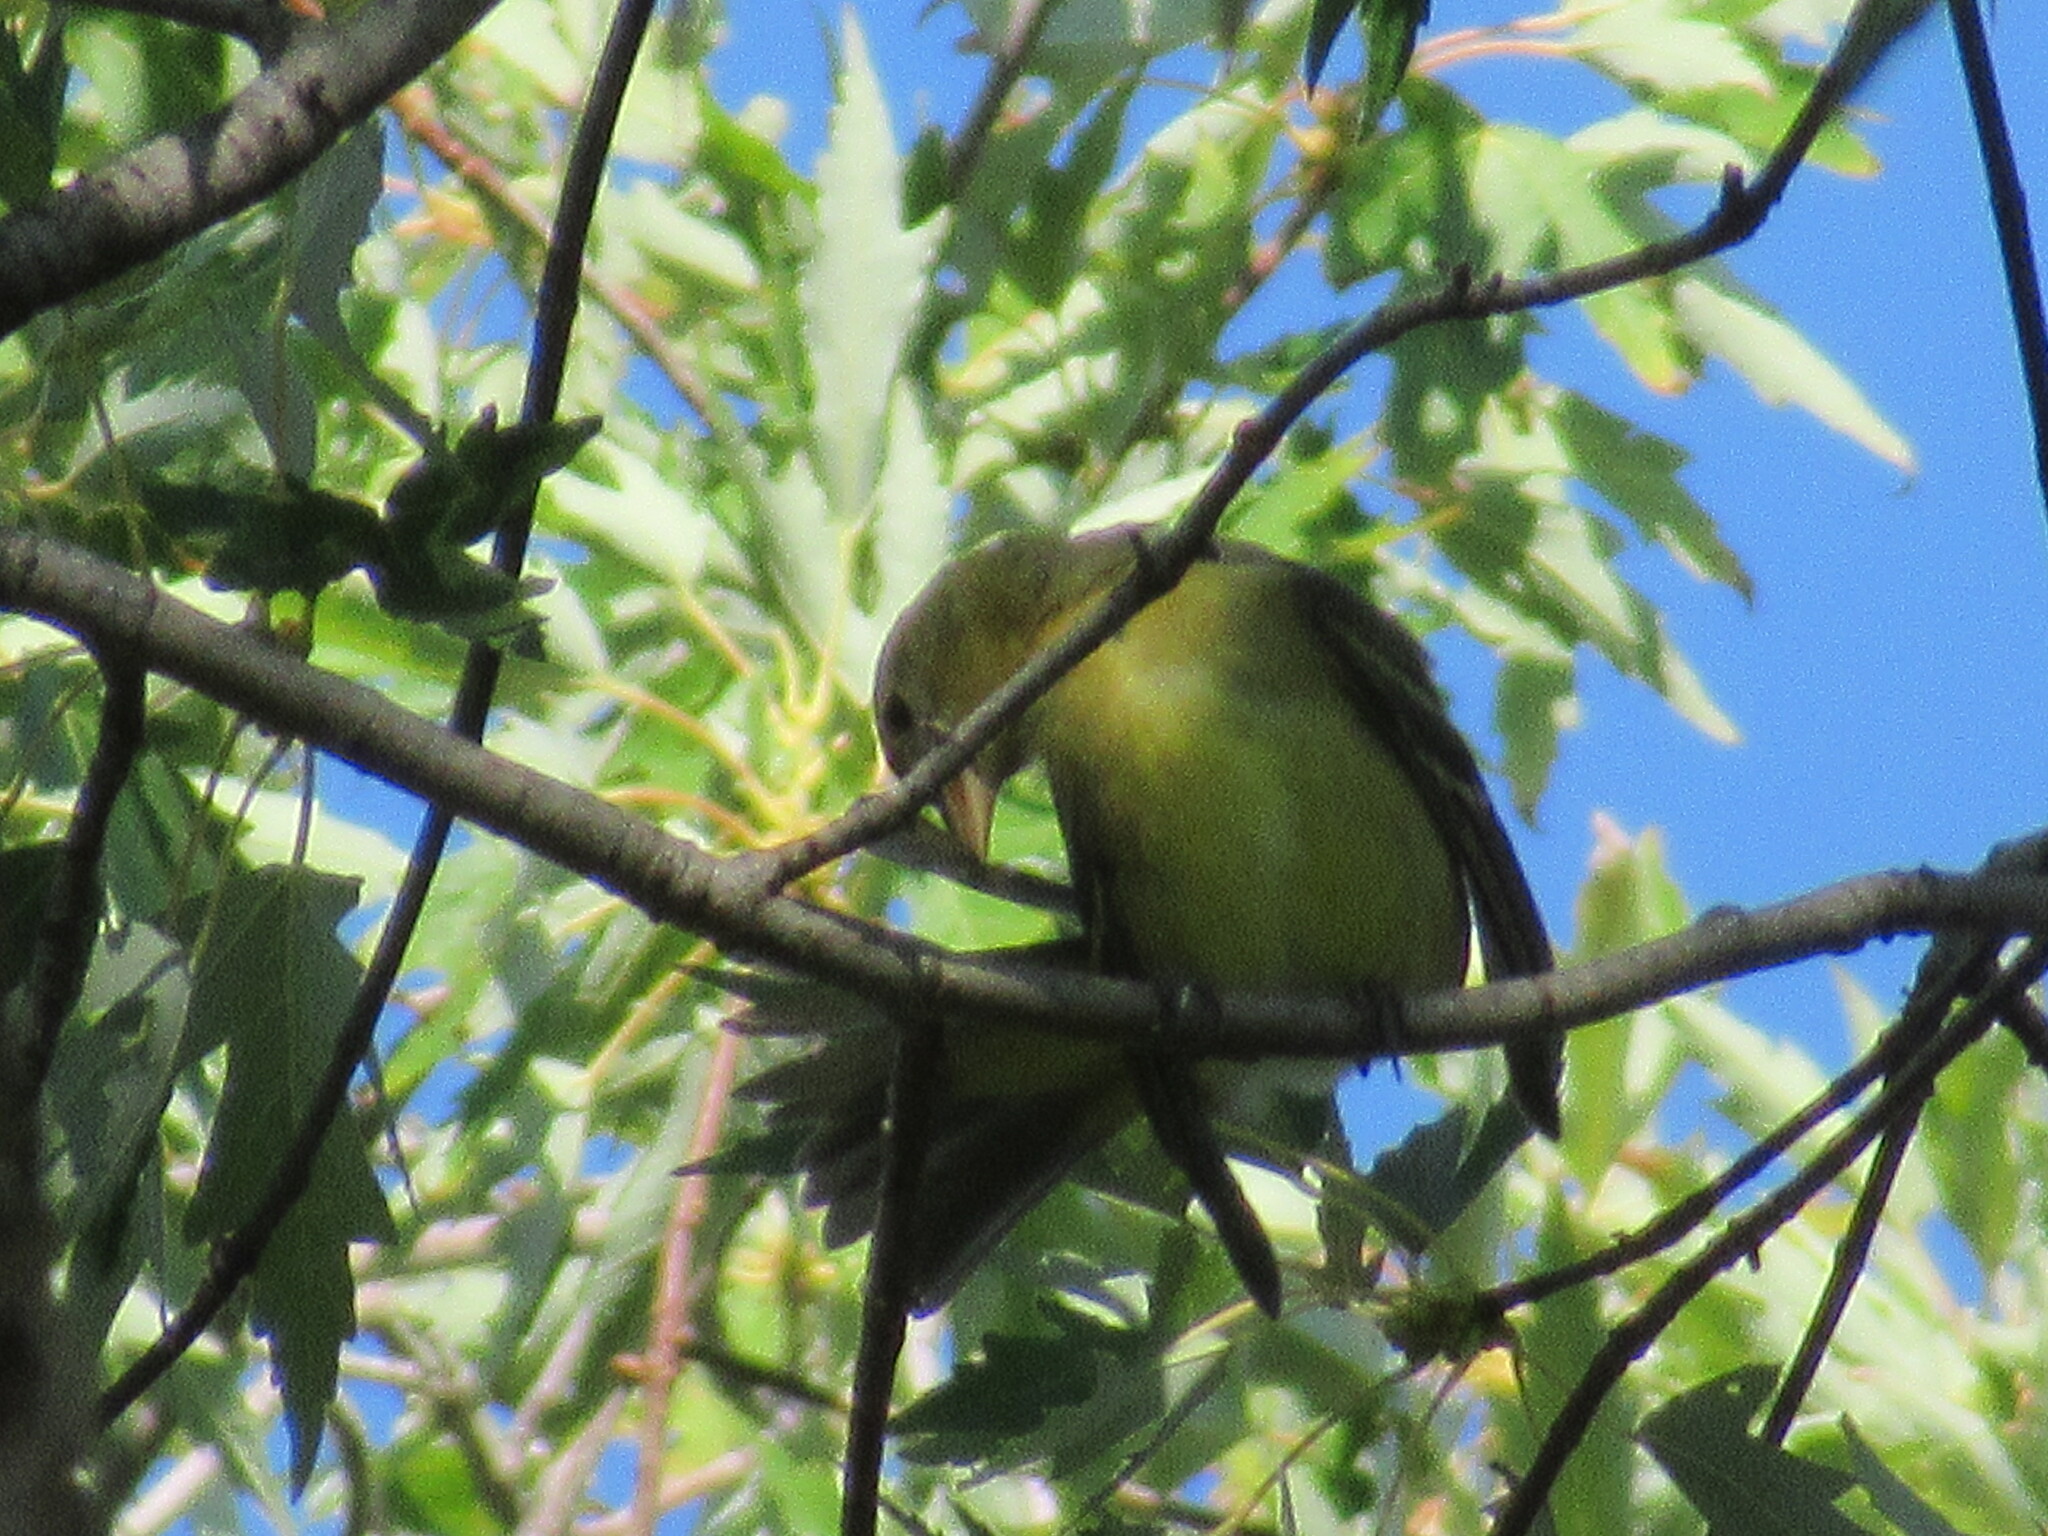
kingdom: Animalia
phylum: Chordata
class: Aves
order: Passeriformes
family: Cardinalidae
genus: Piranga
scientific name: Piranga ludoviciana
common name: Western tanager
